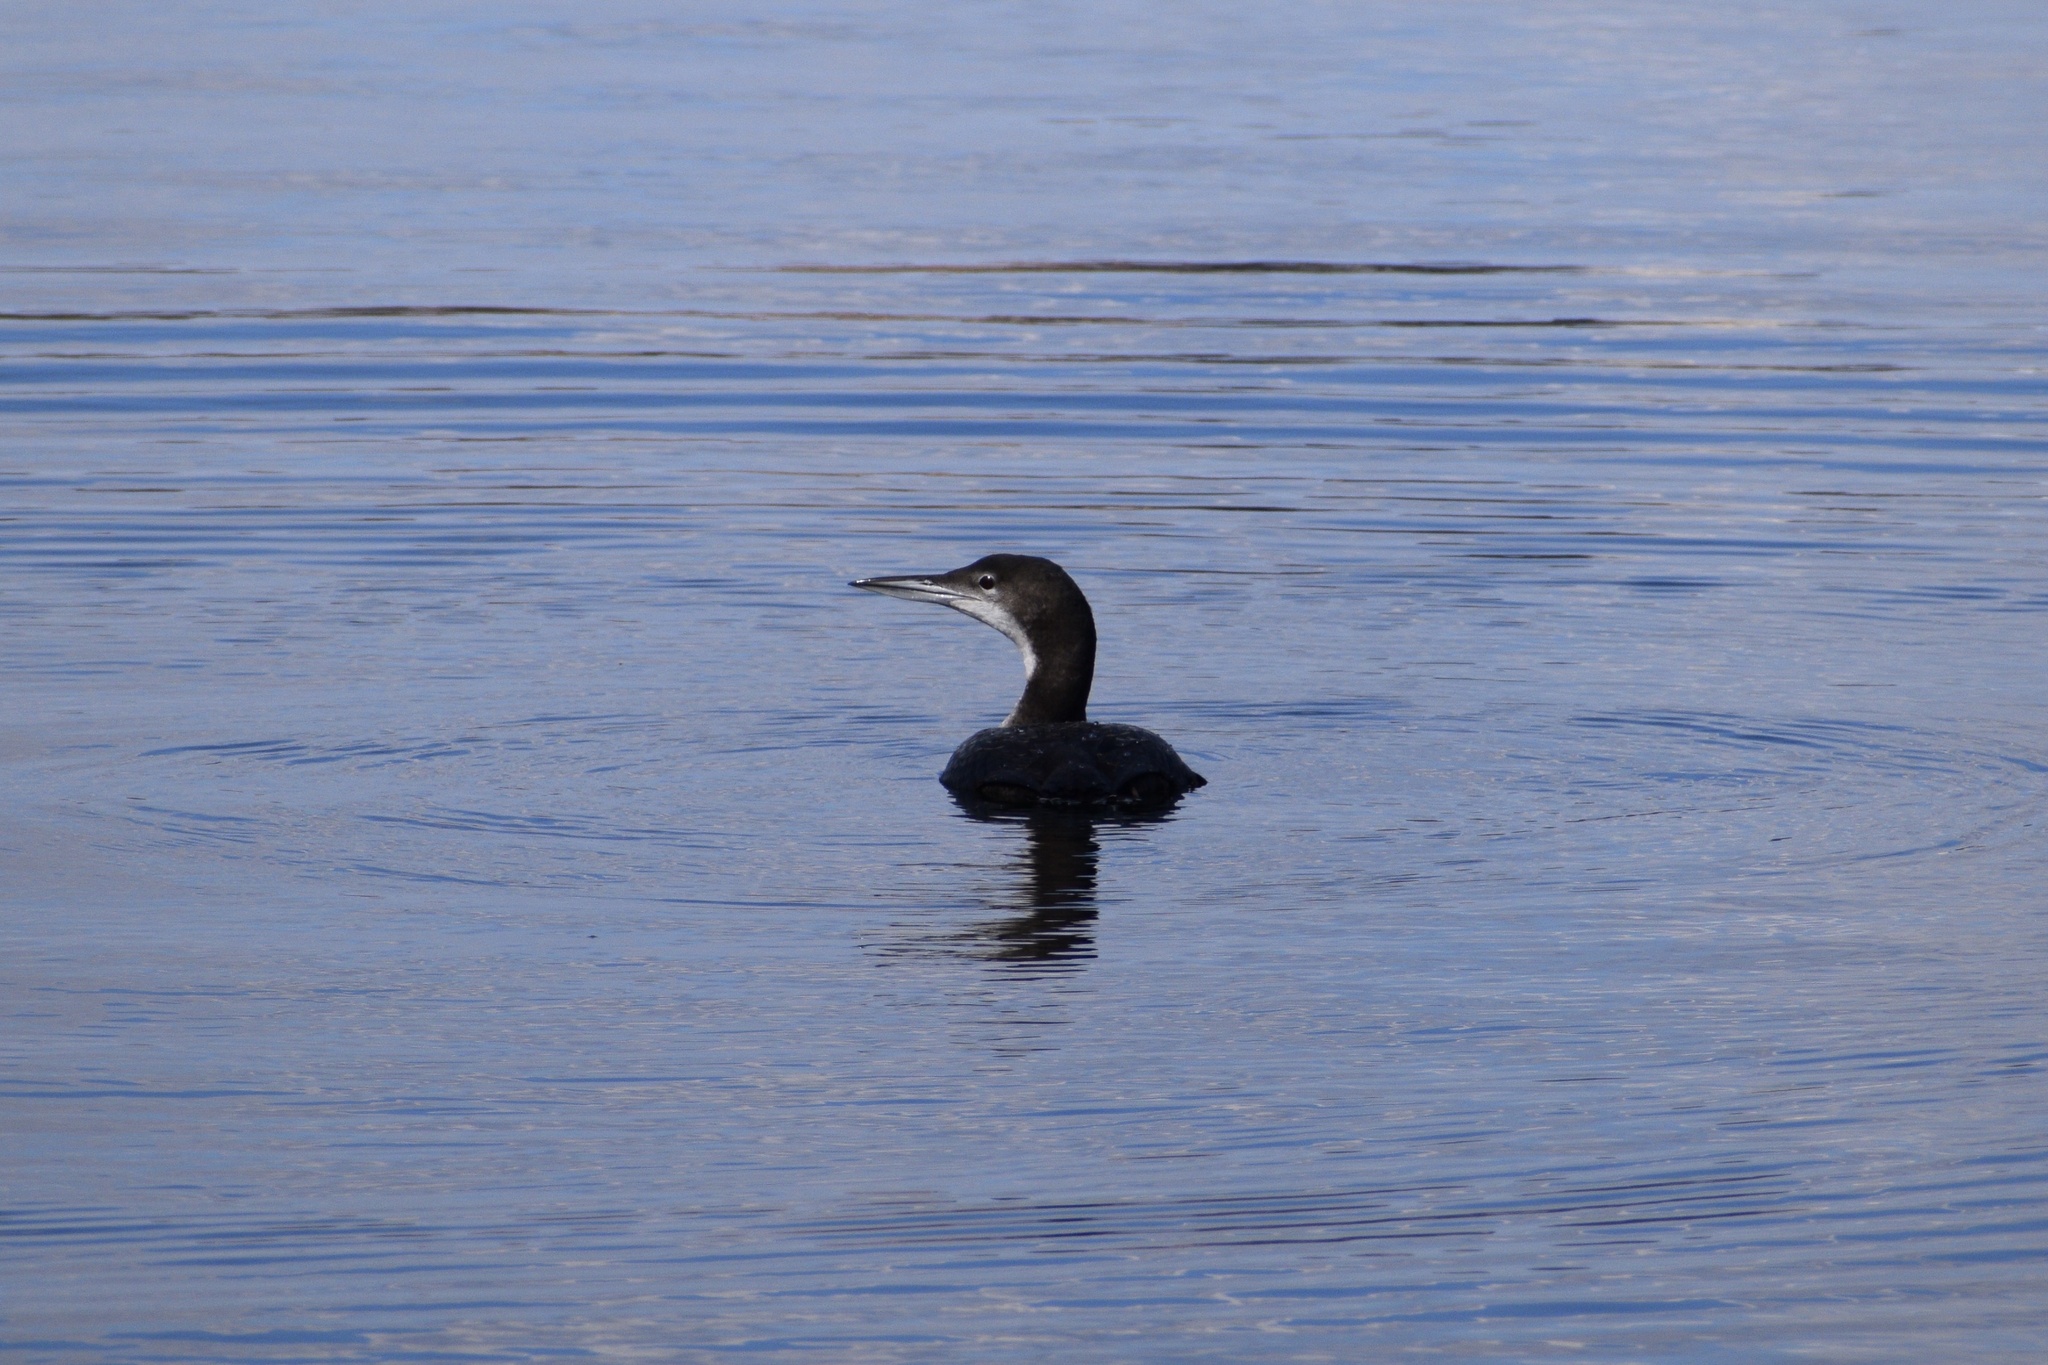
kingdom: Animalia
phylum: Chordata
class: Aves
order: Gaviiformes
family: Gaviidae
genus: Gavia
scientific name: Gavia immer
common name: Common loon
